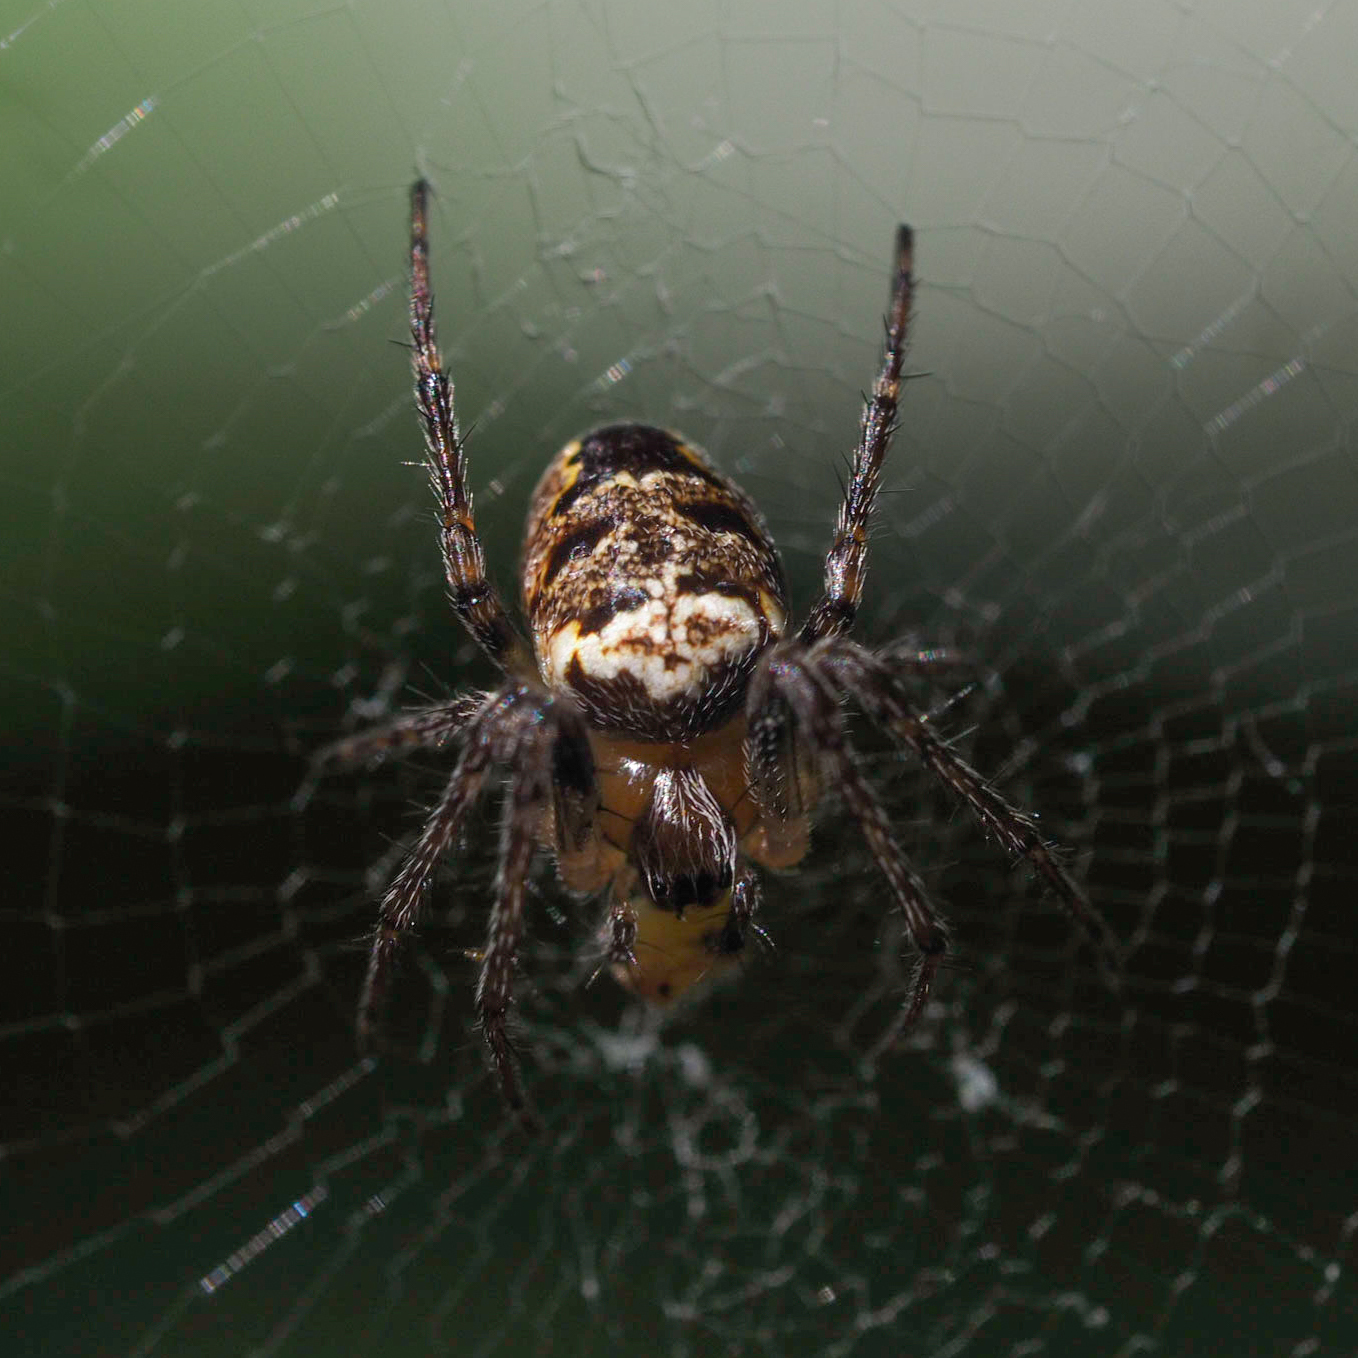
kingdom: Animalia
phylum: Arthropoda
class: Arachnida
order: Araneae
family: Araneidae
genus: Zilla
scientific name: Zilla diodia
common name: Zilla diodia
